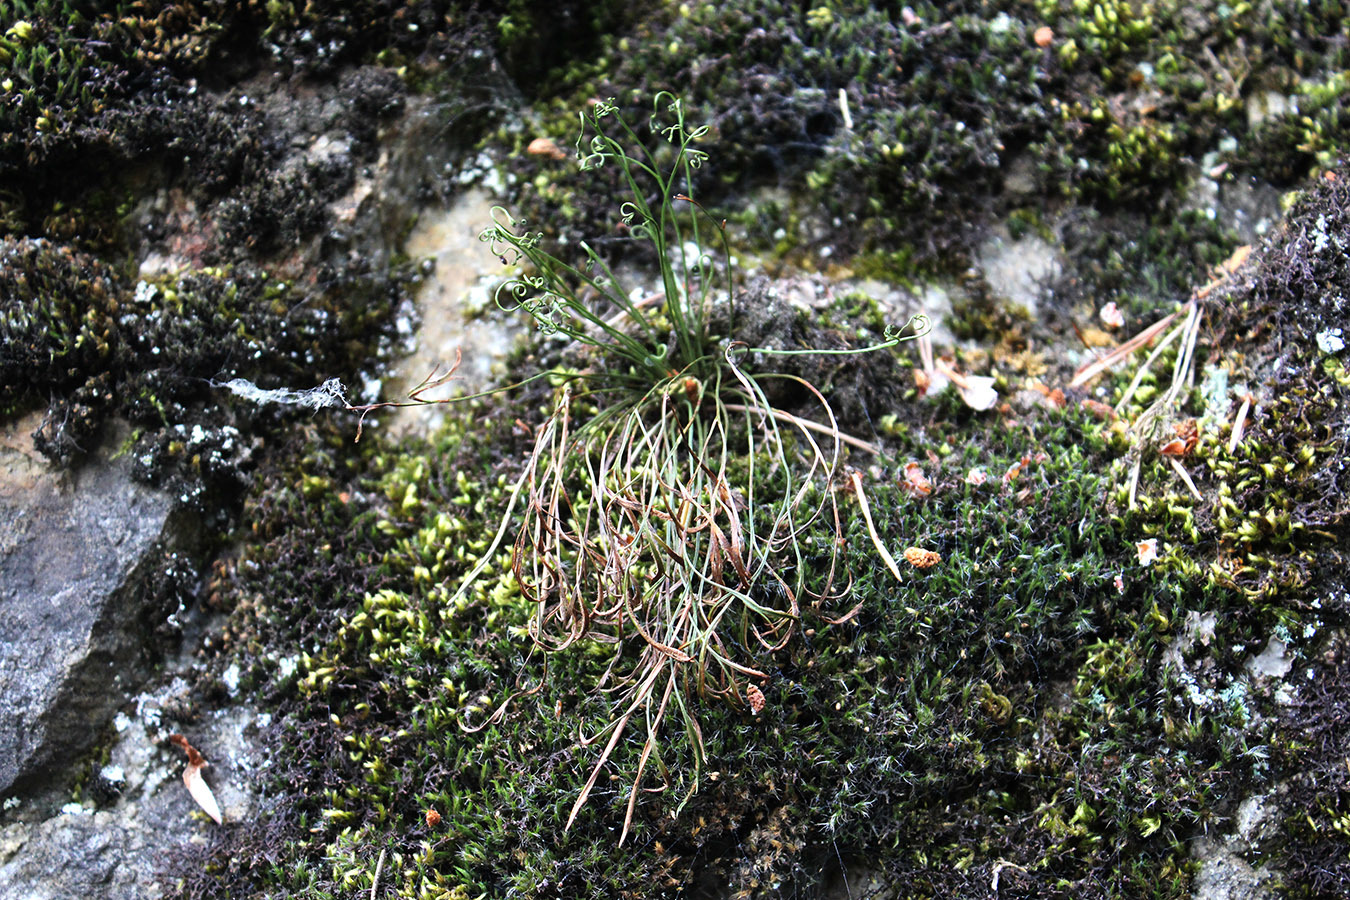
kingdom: Plantae
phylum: Tracheophyta
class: Polypodiopsida
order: Polypodiales
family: Aspleniaceae
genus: Asplenium
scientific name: Asplenium septentrionale
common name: Forked spleenwort
